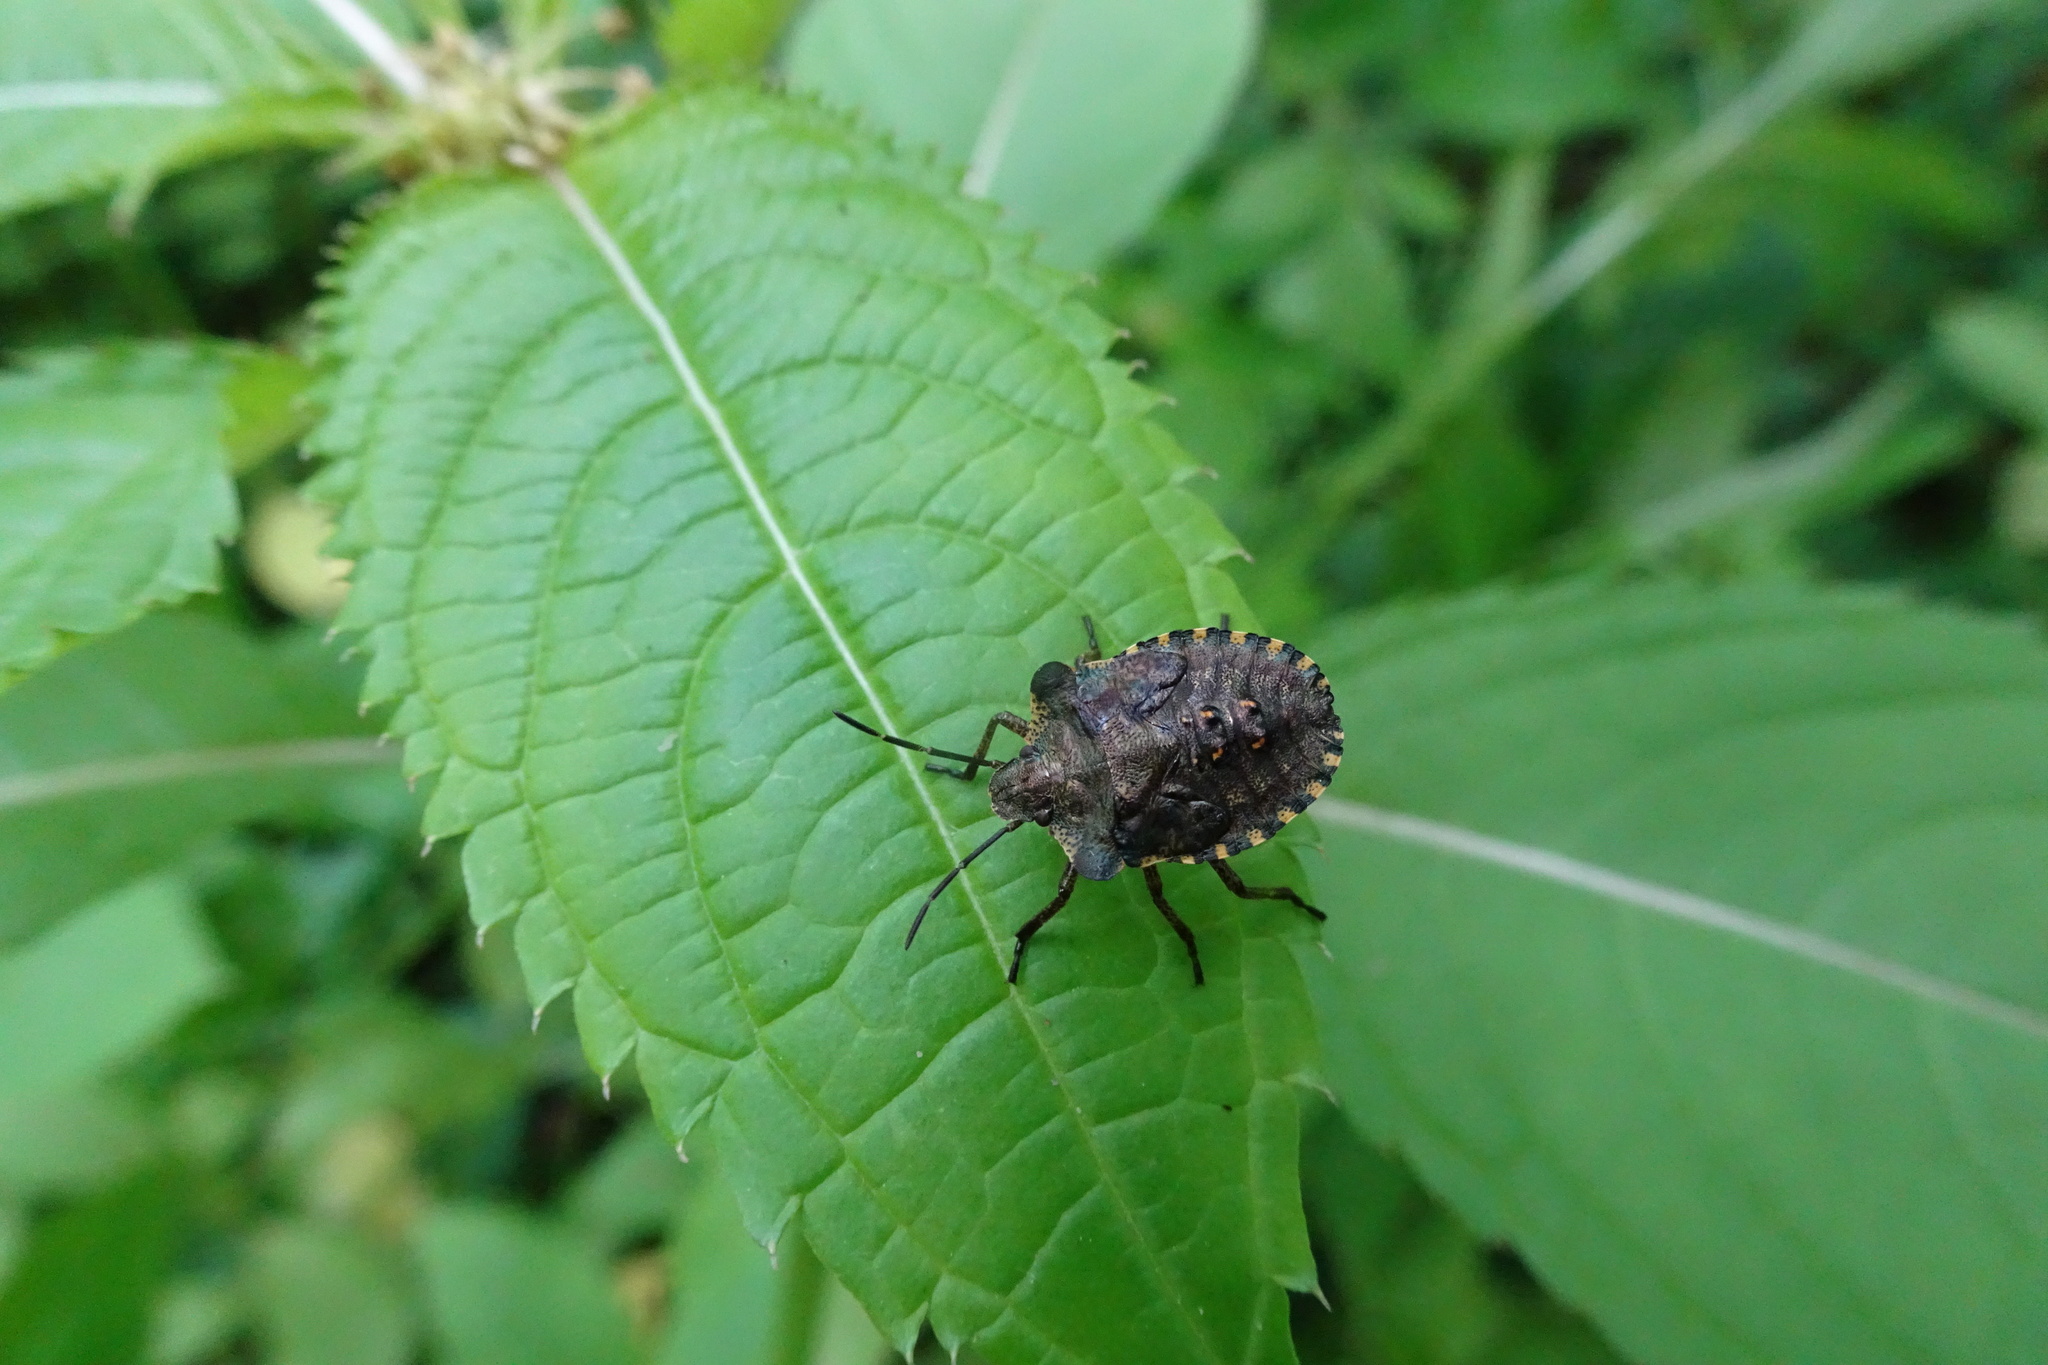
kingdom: Animalia
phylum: Arthropoda
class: Insecta
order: Hemiptera
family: Pentatomidae
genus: Pentatoma
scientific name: Pentatoma rufipes
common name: Forest bug
